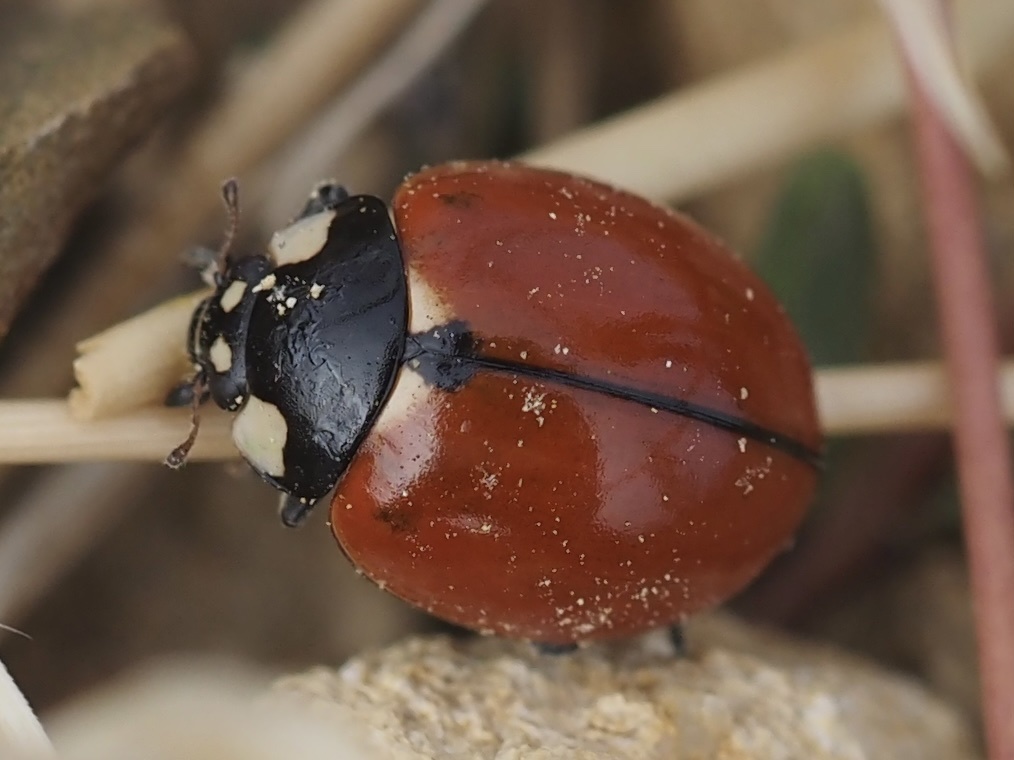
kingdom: Animalia
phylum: Arthropoda
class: Insecta
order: Coleoptera
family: Coccinellidae
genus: Coccinella
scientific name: Coccinella californica
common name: Lady beetle
